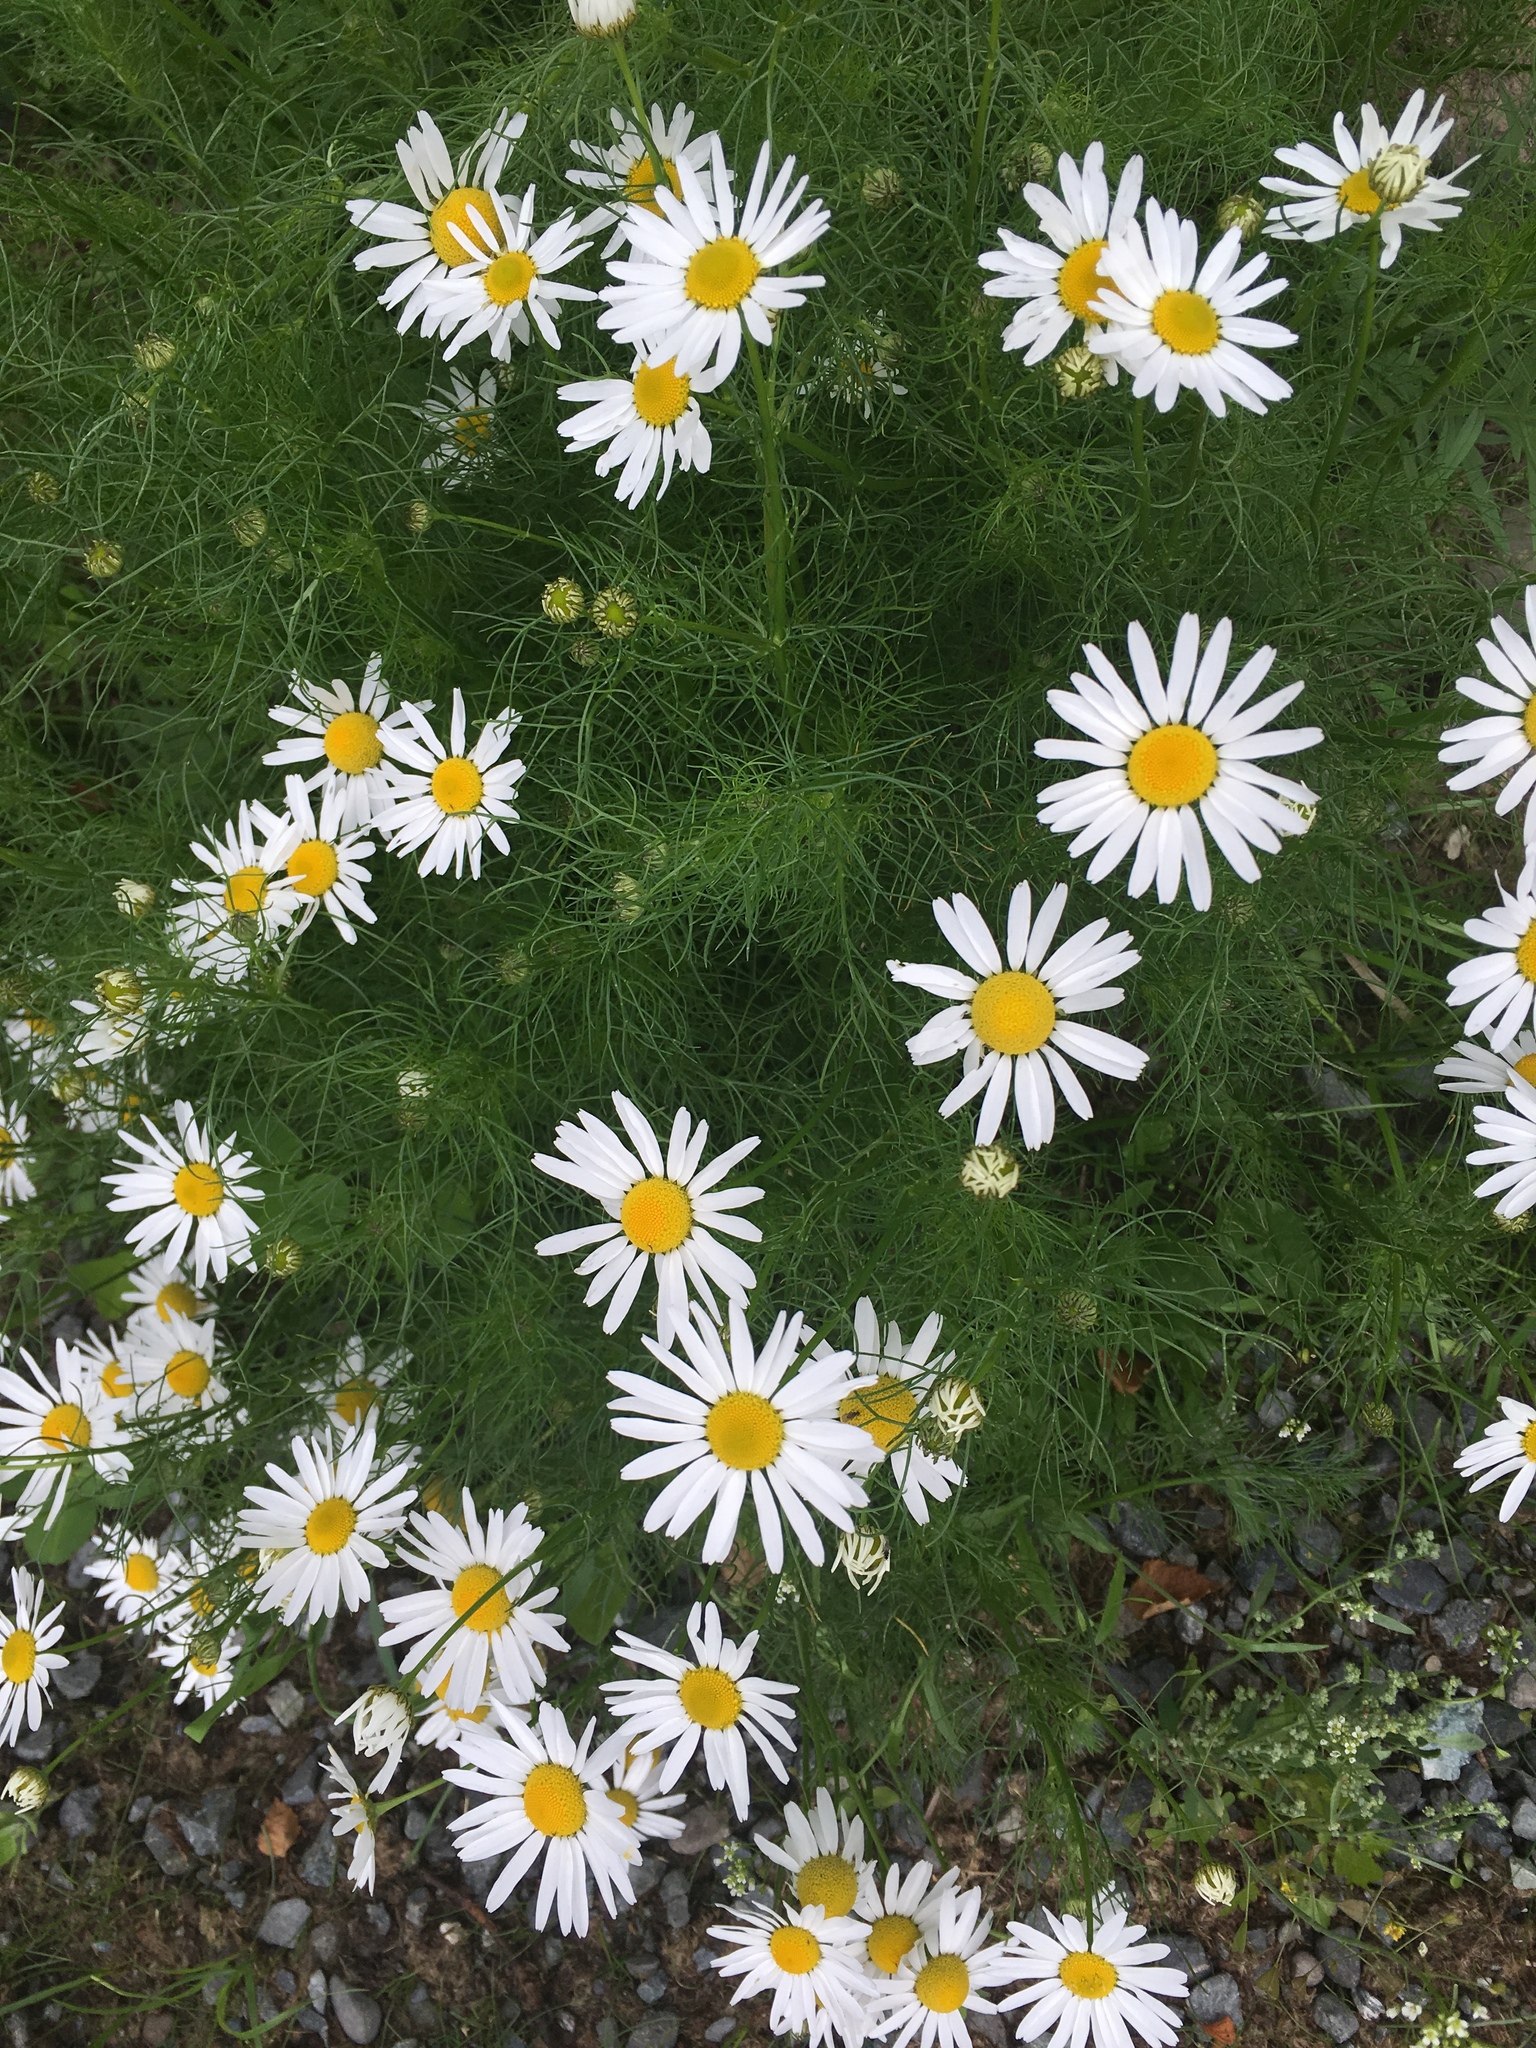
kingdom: Plantae
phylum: Tracheophyta
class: Magnoliopsida
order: Asterales
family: Asteraceae
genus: Tripleurospermum
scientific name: Tripleurospermum inodorum
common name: Scentless mayweed
